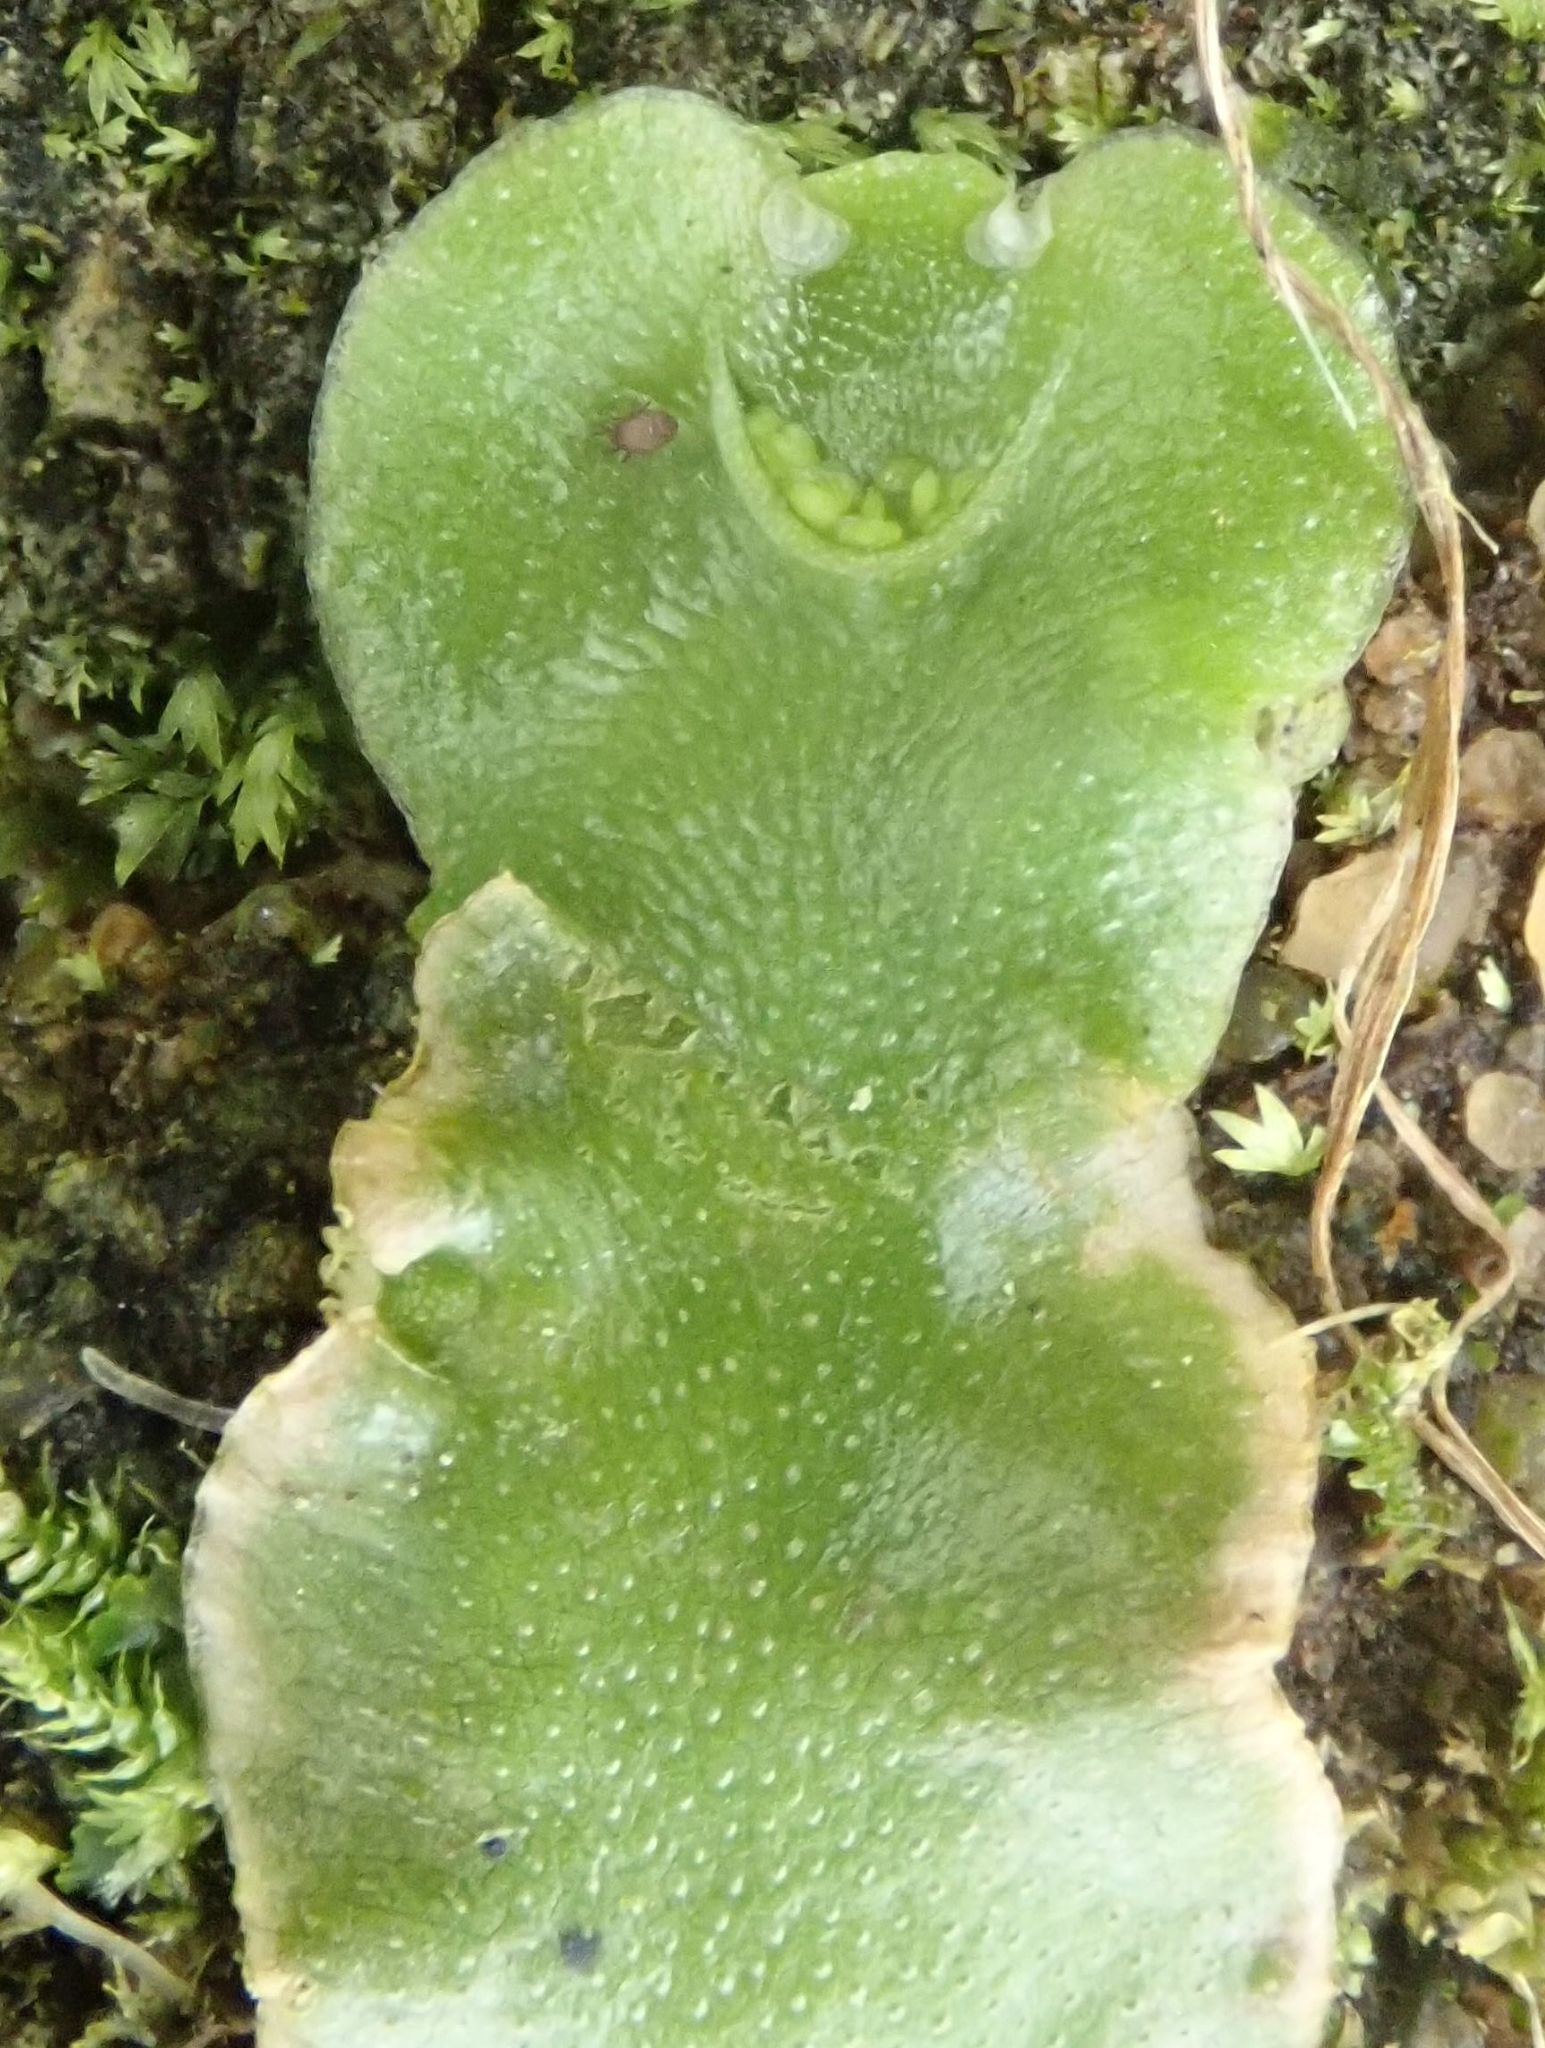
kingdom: Plantae
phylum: Marchantiophyta
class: Marchantiopsida
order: Lunulariales
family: Lunulariaceae
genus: Lunularia
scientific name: Lunularia cruciata
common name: Crescent-cup liverwort
